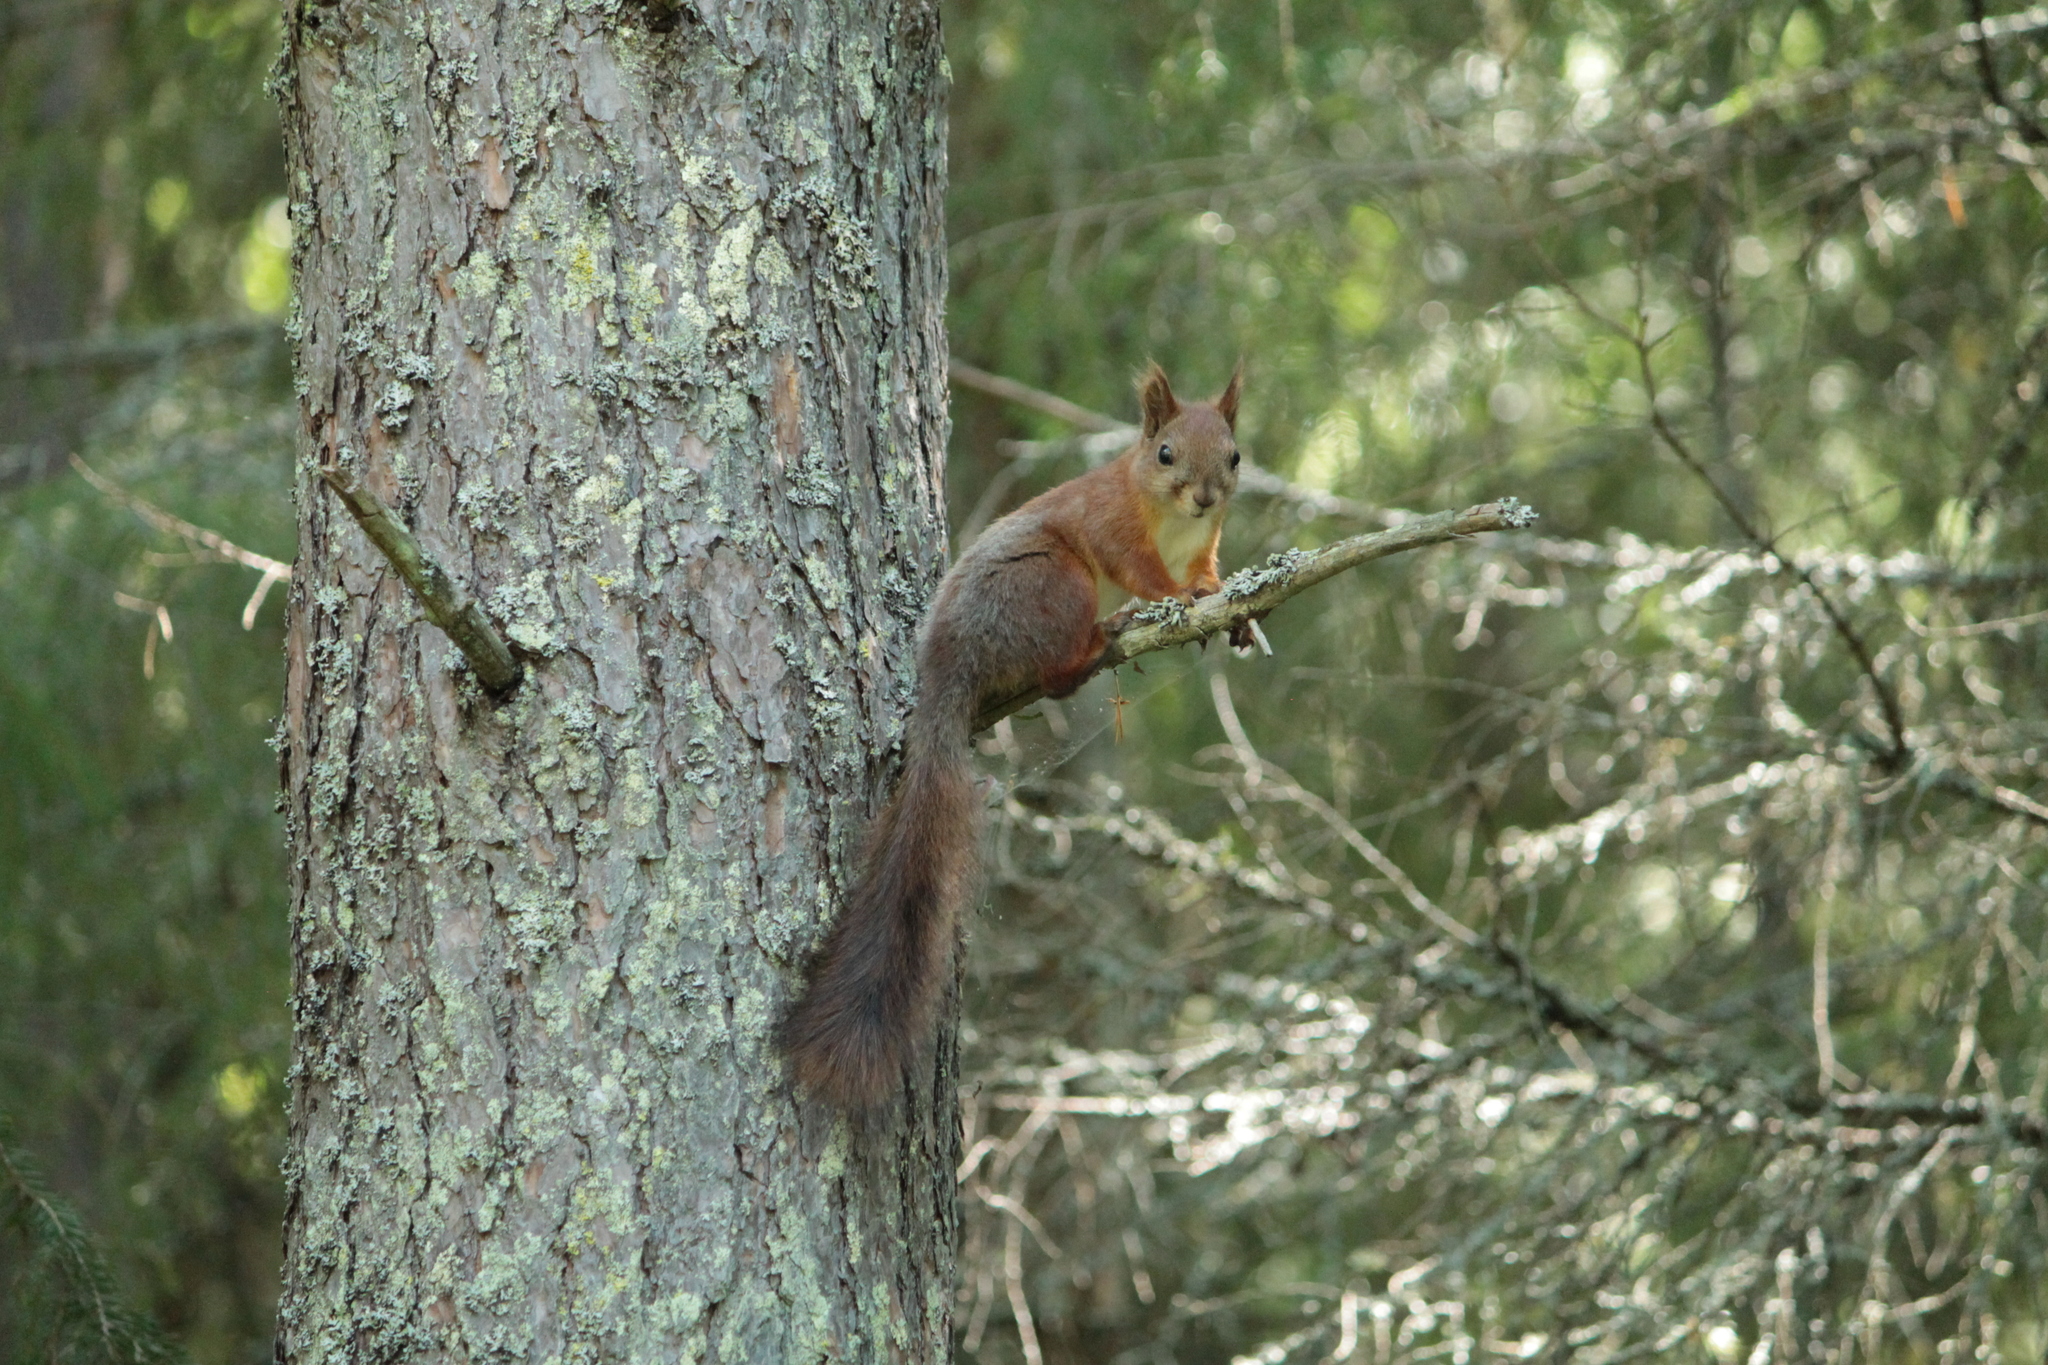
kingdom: Animalia
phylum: Chordata
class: Mammalia
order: Rodentia
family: Sciuridae
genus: Sciurus
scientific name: Sciurus vulgaris
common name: Eurasian red squirrel
